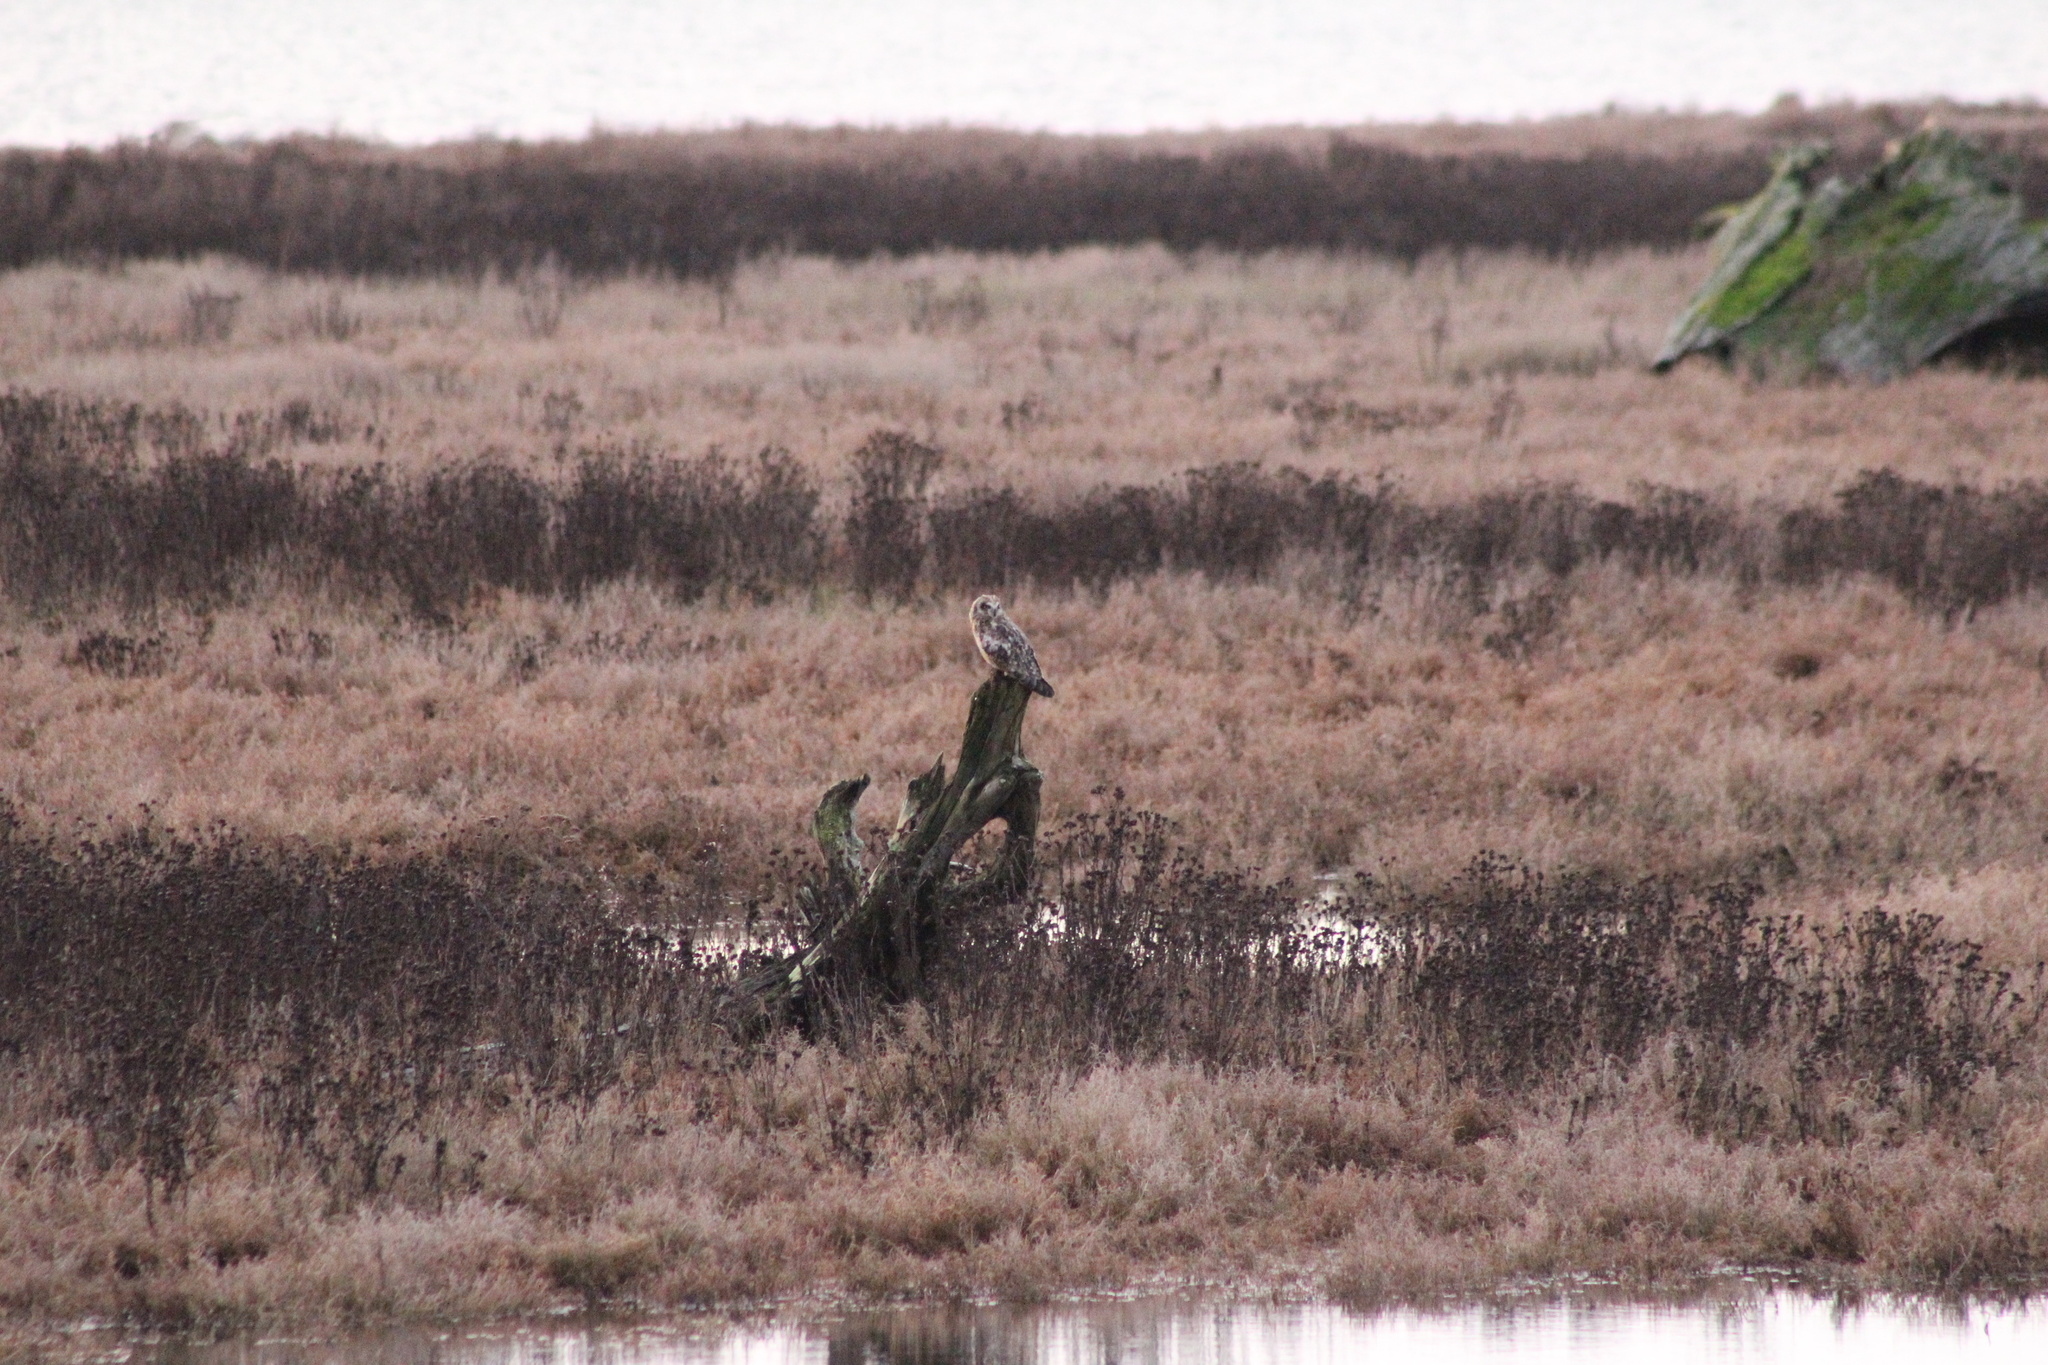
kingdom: Animalia
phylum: Chordata
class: Aves
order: Strigiformes
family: Strigidae
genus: Asio
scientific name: Asio flammeus
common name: Short-eared owl
